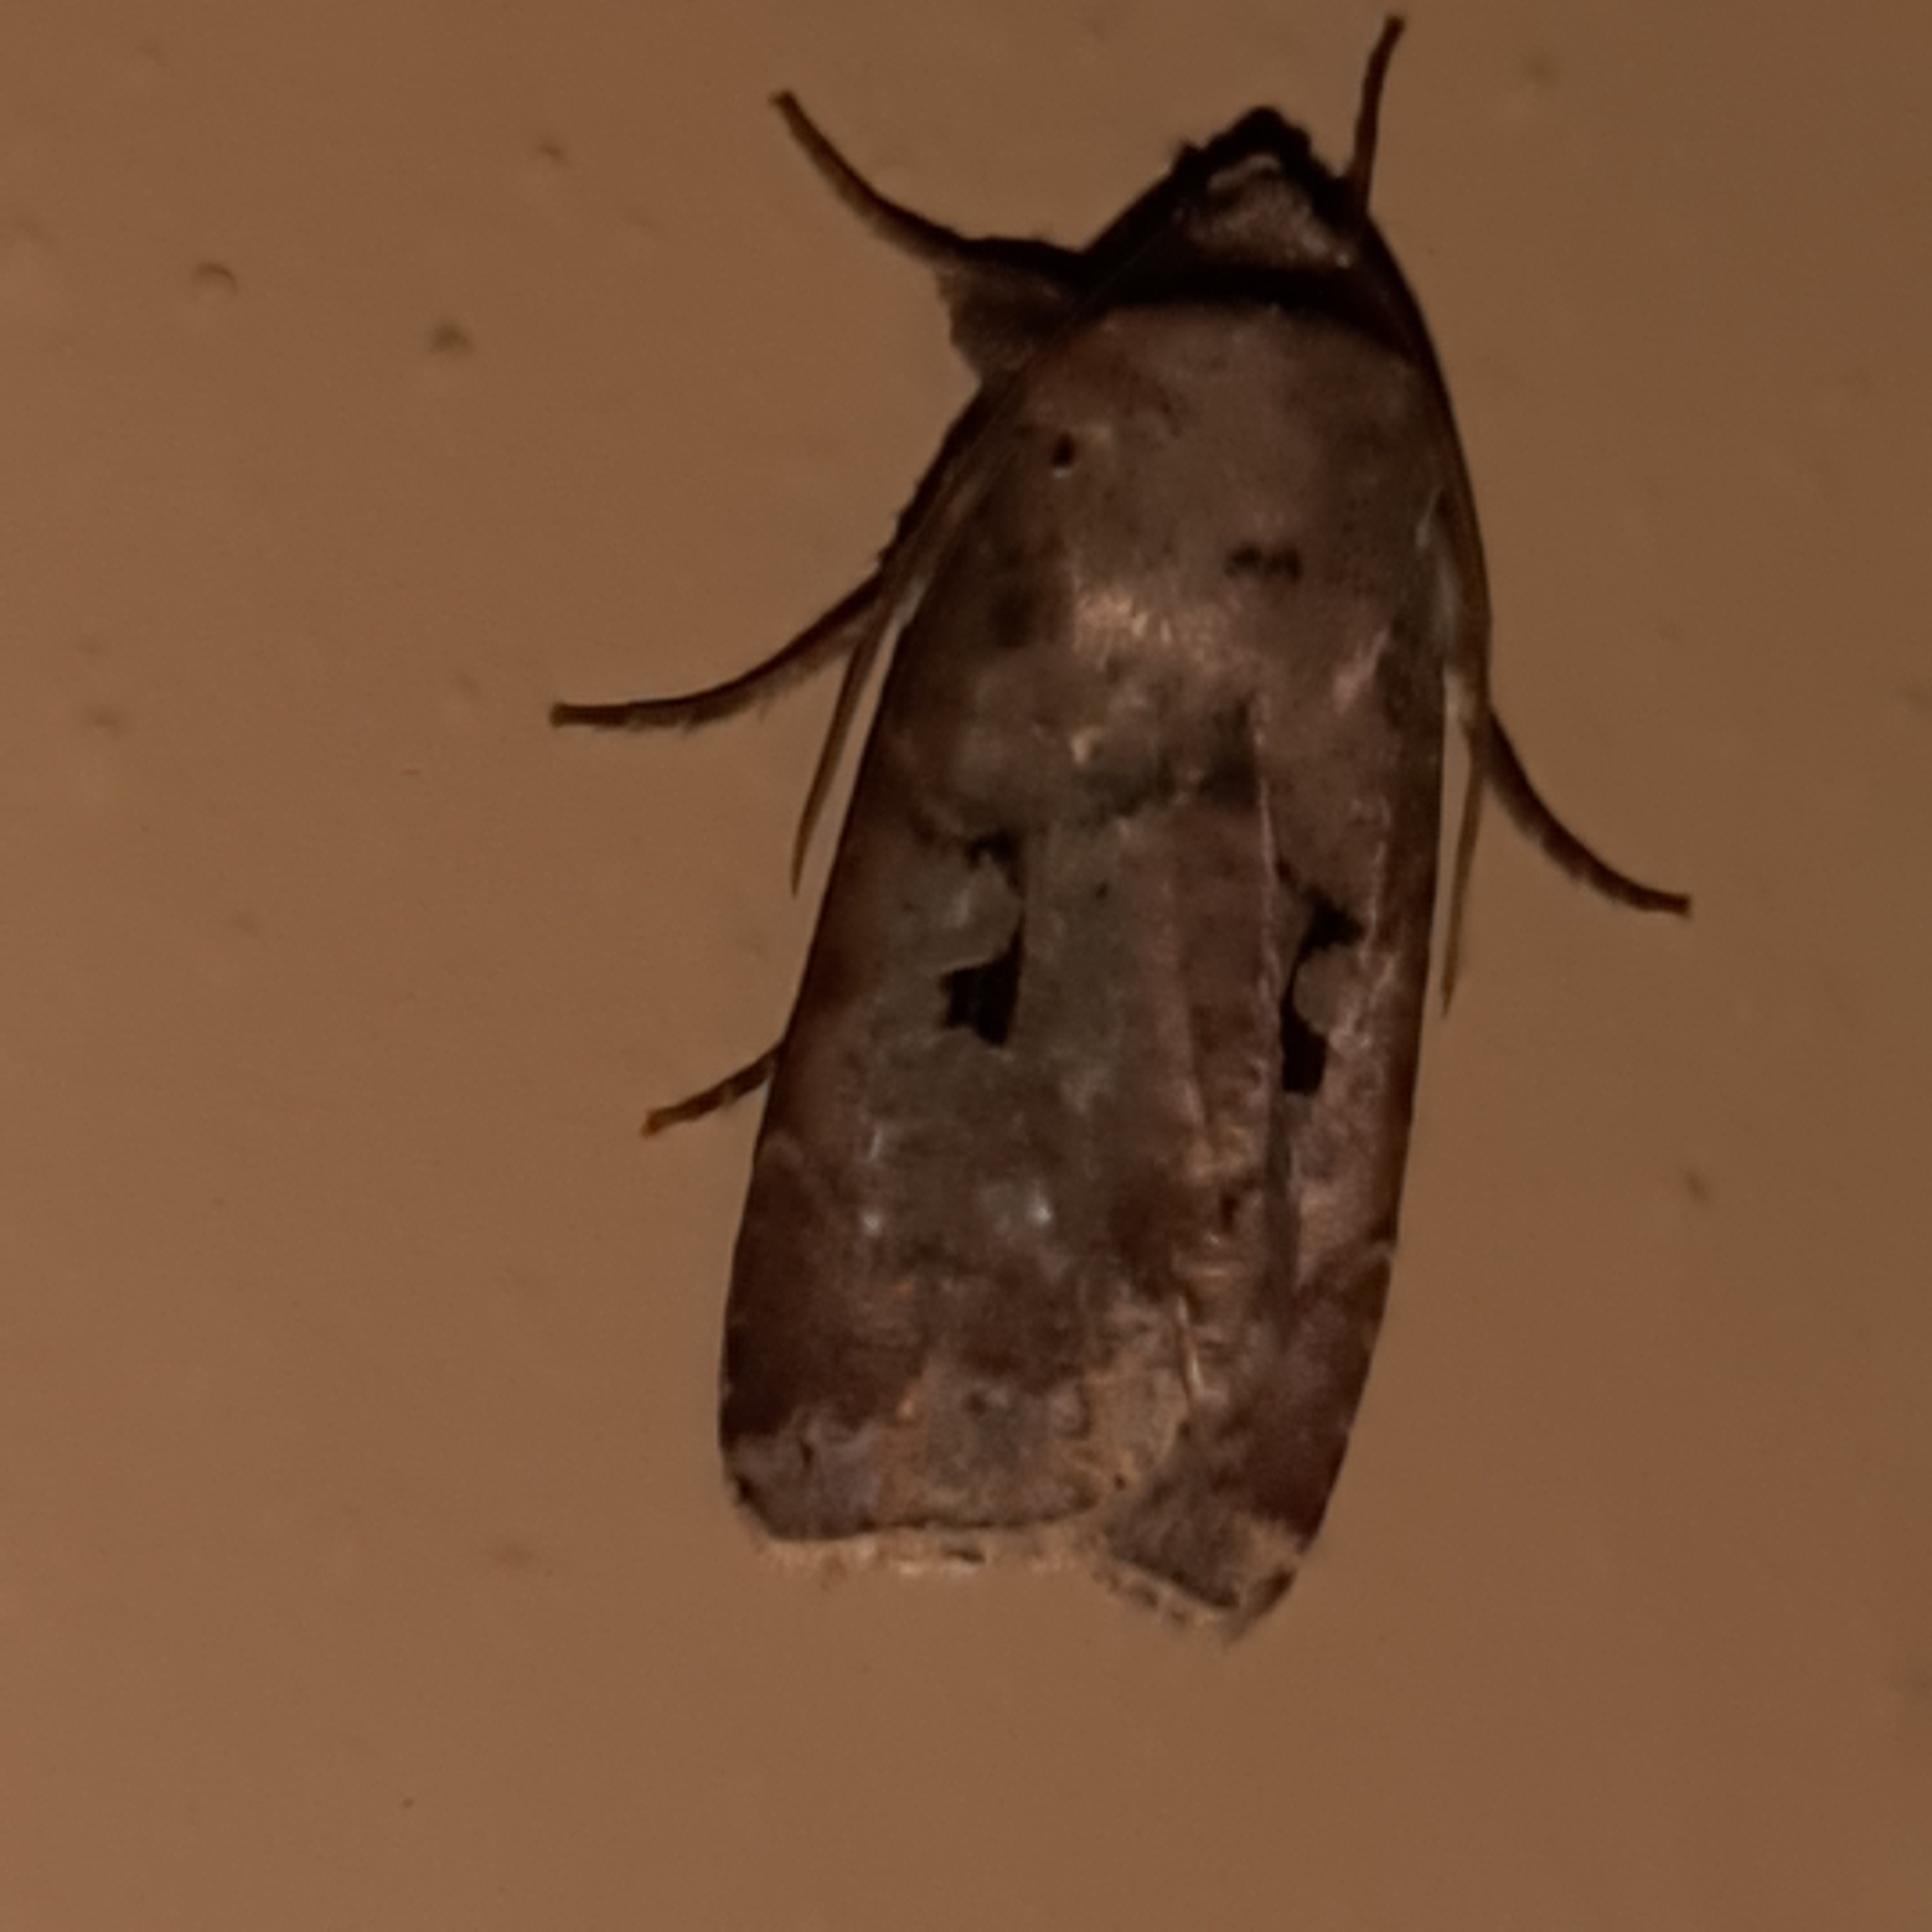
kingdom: Animalia
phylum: Arthropoda
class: Insecta
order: Lepidoptera
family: Noctuidae
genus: Praina
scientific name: Praina
